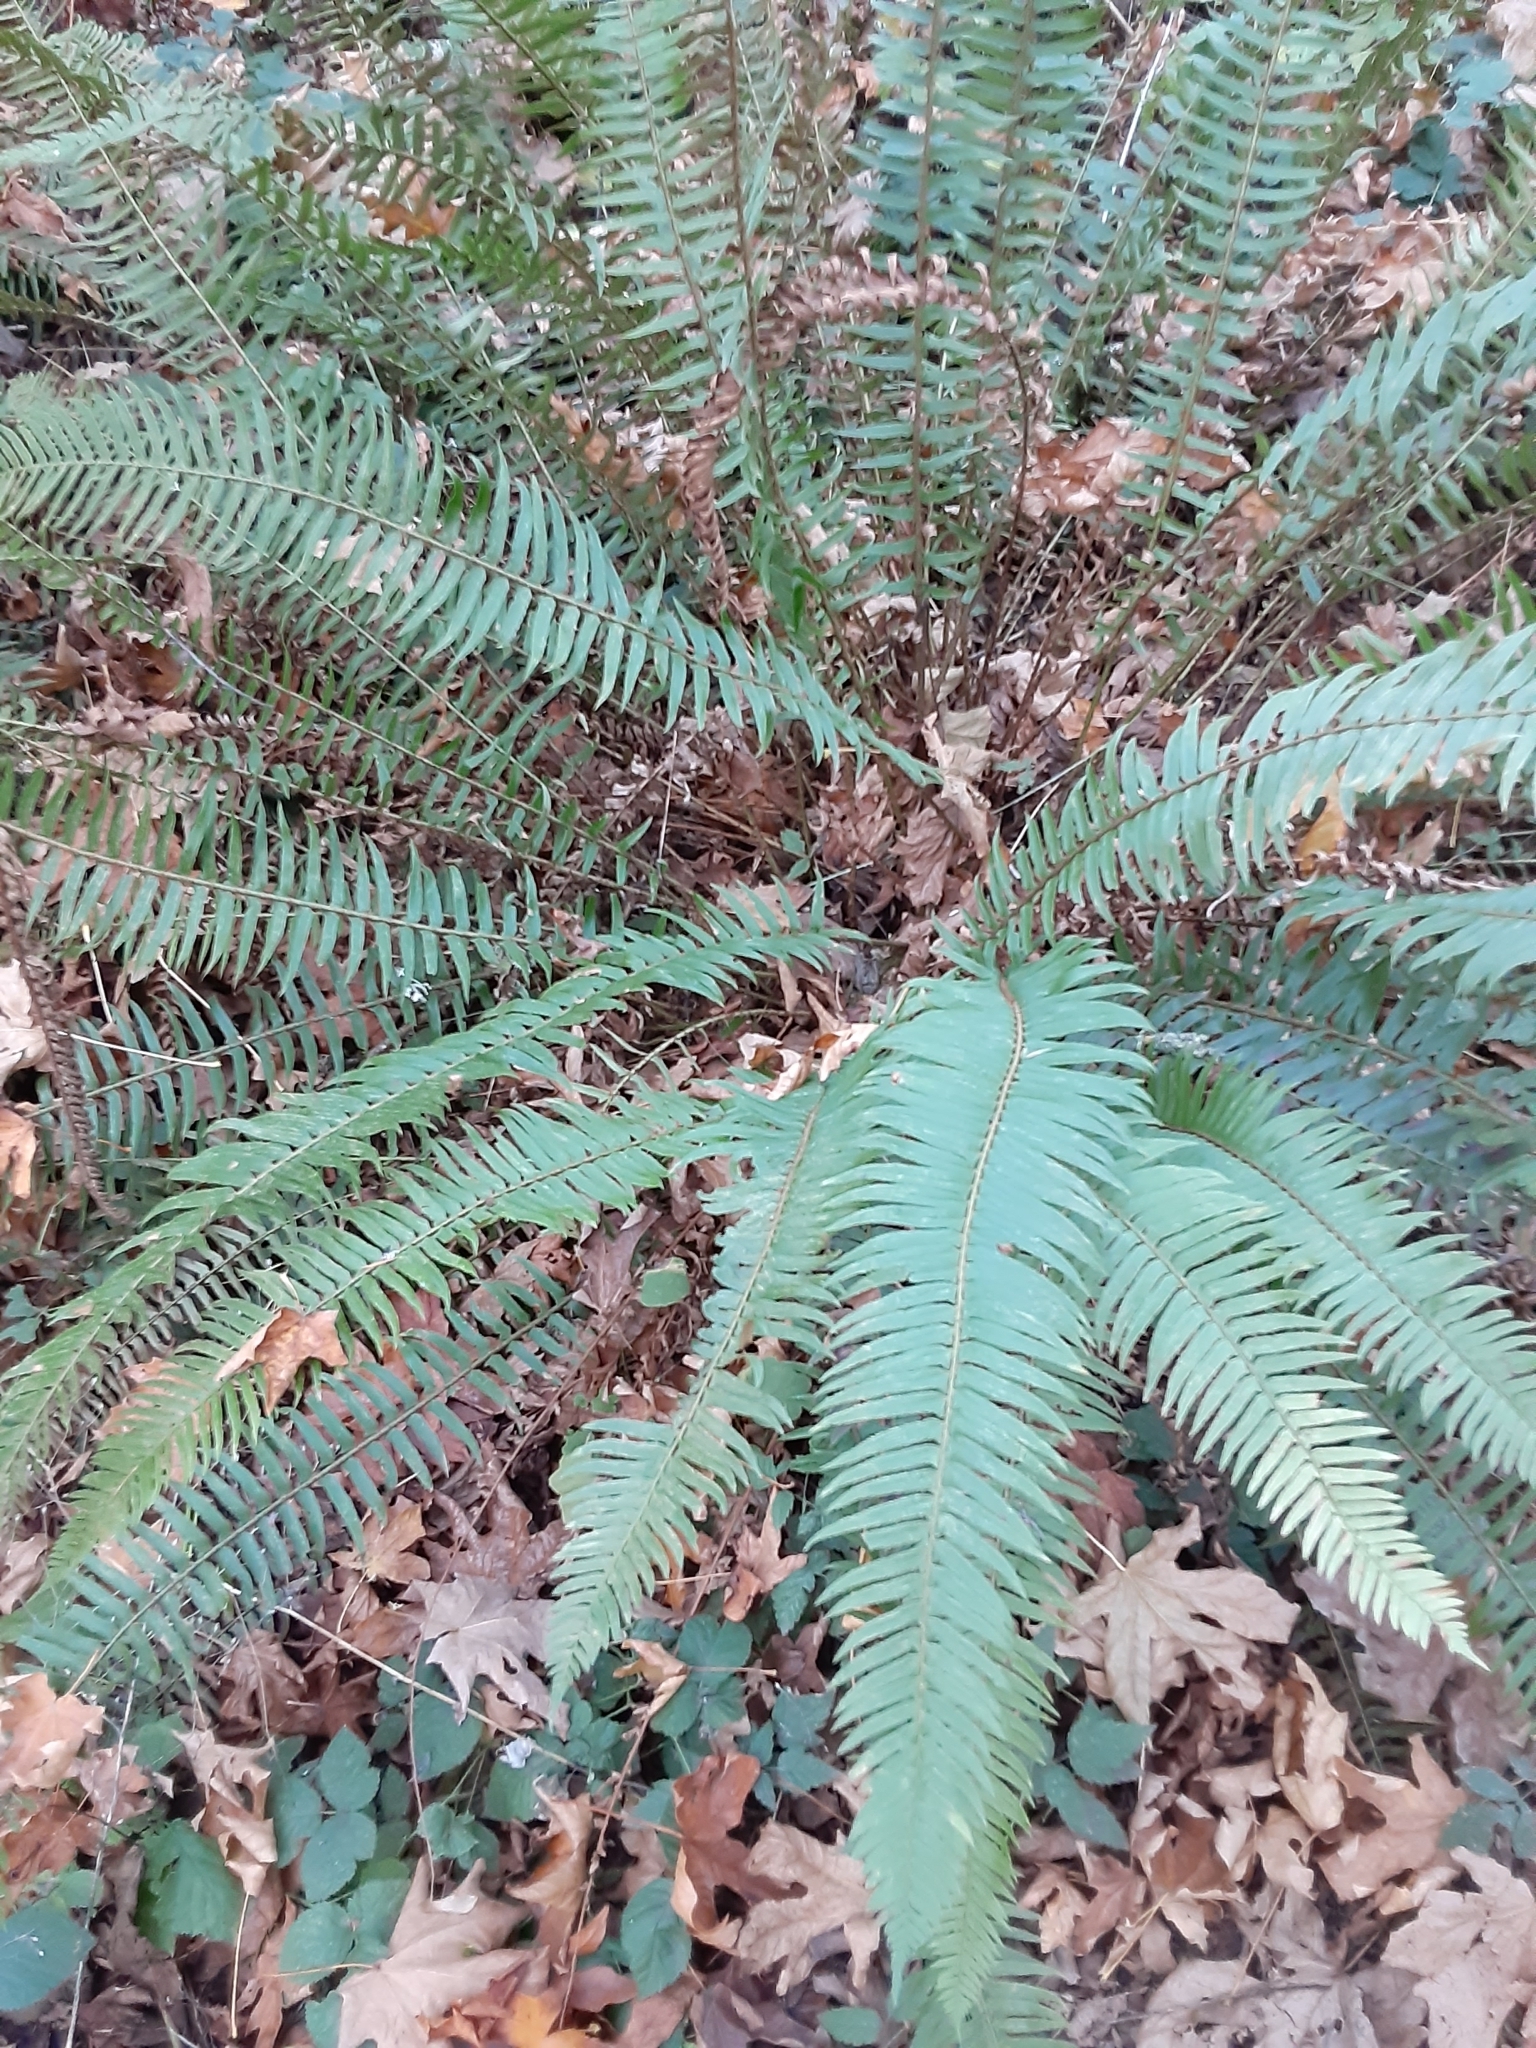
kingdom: Plantae
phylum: Tracheophyta
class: Polypodiopsida
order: Polypodiales
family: Dryopteridaceae
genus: Polystichum
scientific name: Polystichum munitum
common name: Western sword-fern
